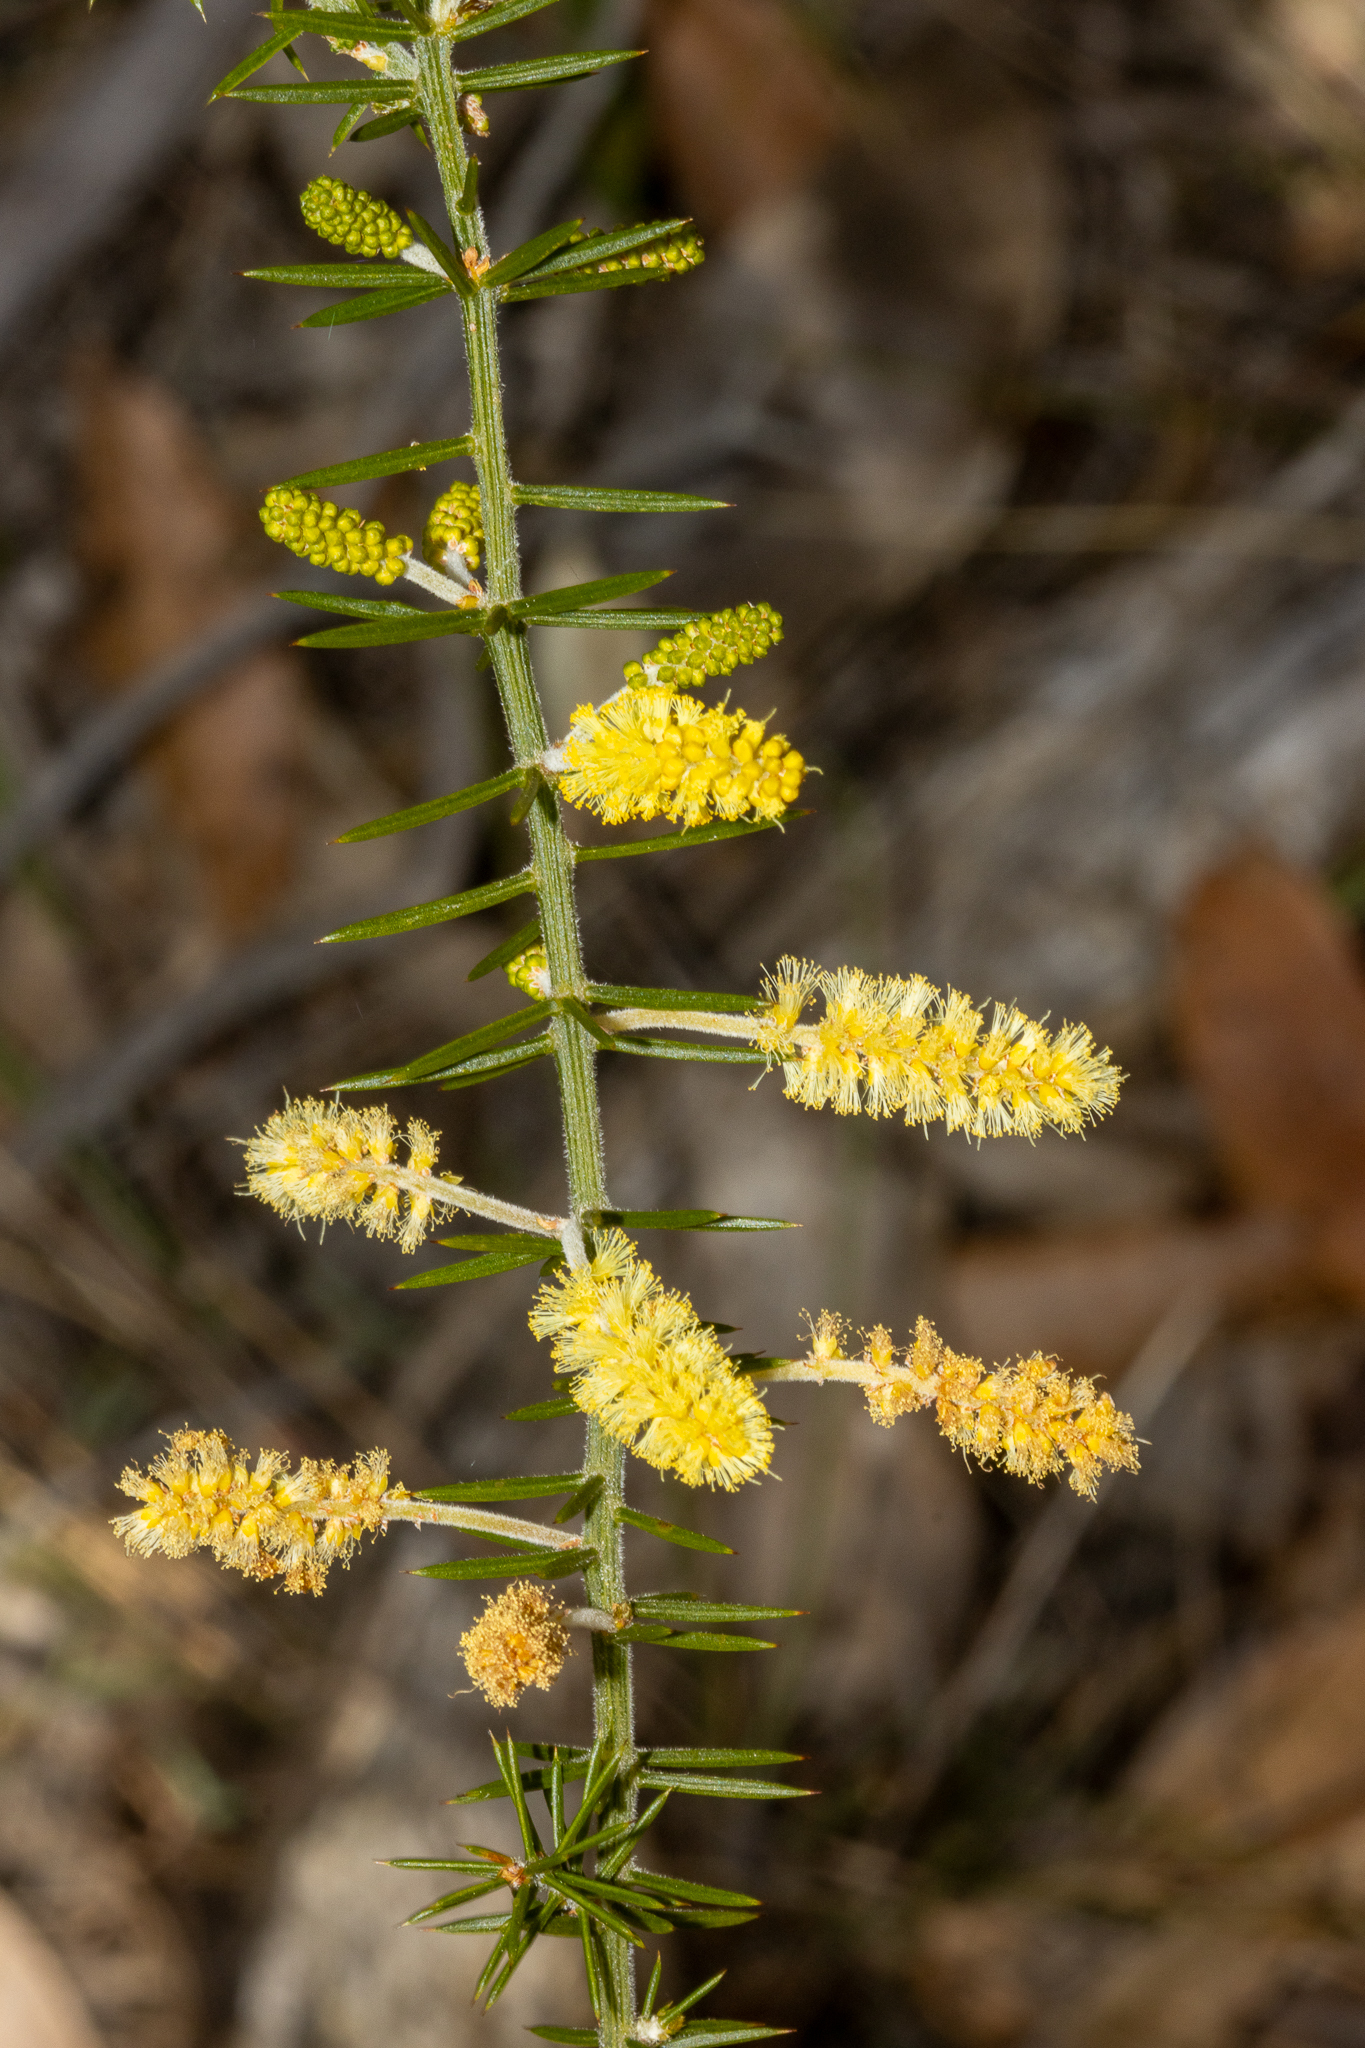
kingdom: Plantae
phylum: Tracheophyta
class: Magnoliopsida
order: Fabales
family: Fabaceae
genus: Acacia
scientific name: Acacia verticillata
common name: Prickly moses
